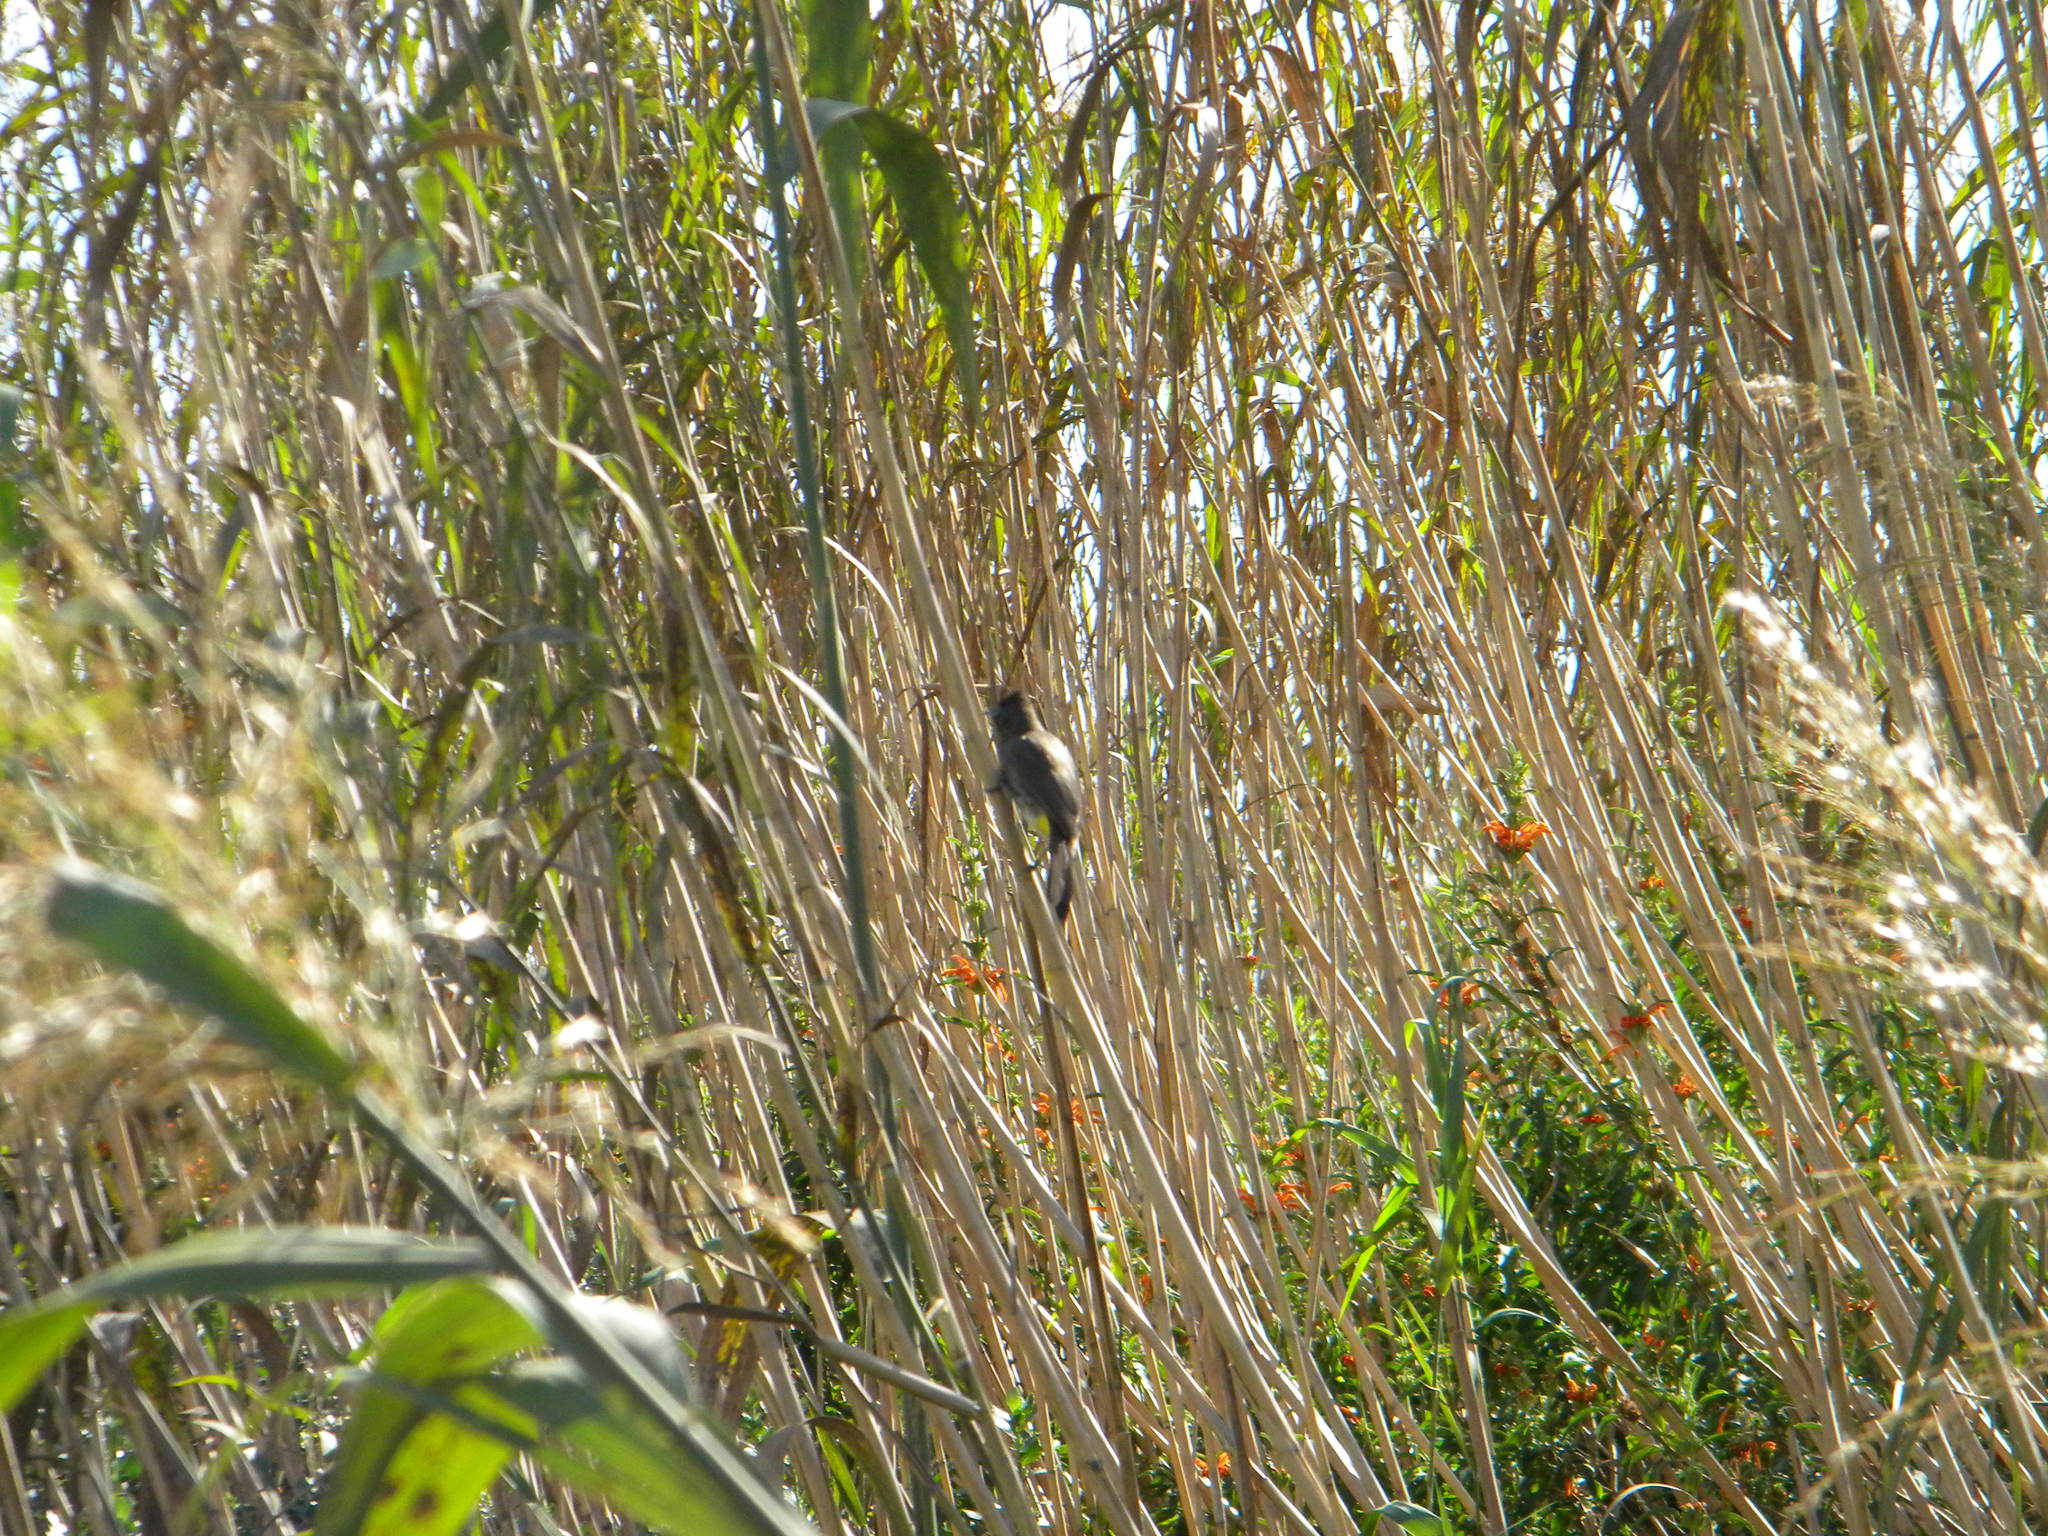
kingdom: Animalia
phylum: Chordata
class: Aves
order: Passeriformes
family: Pycnonotidae
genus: Pycnonotus
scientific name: Pycnonotus capensis
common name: Cape bulbul
